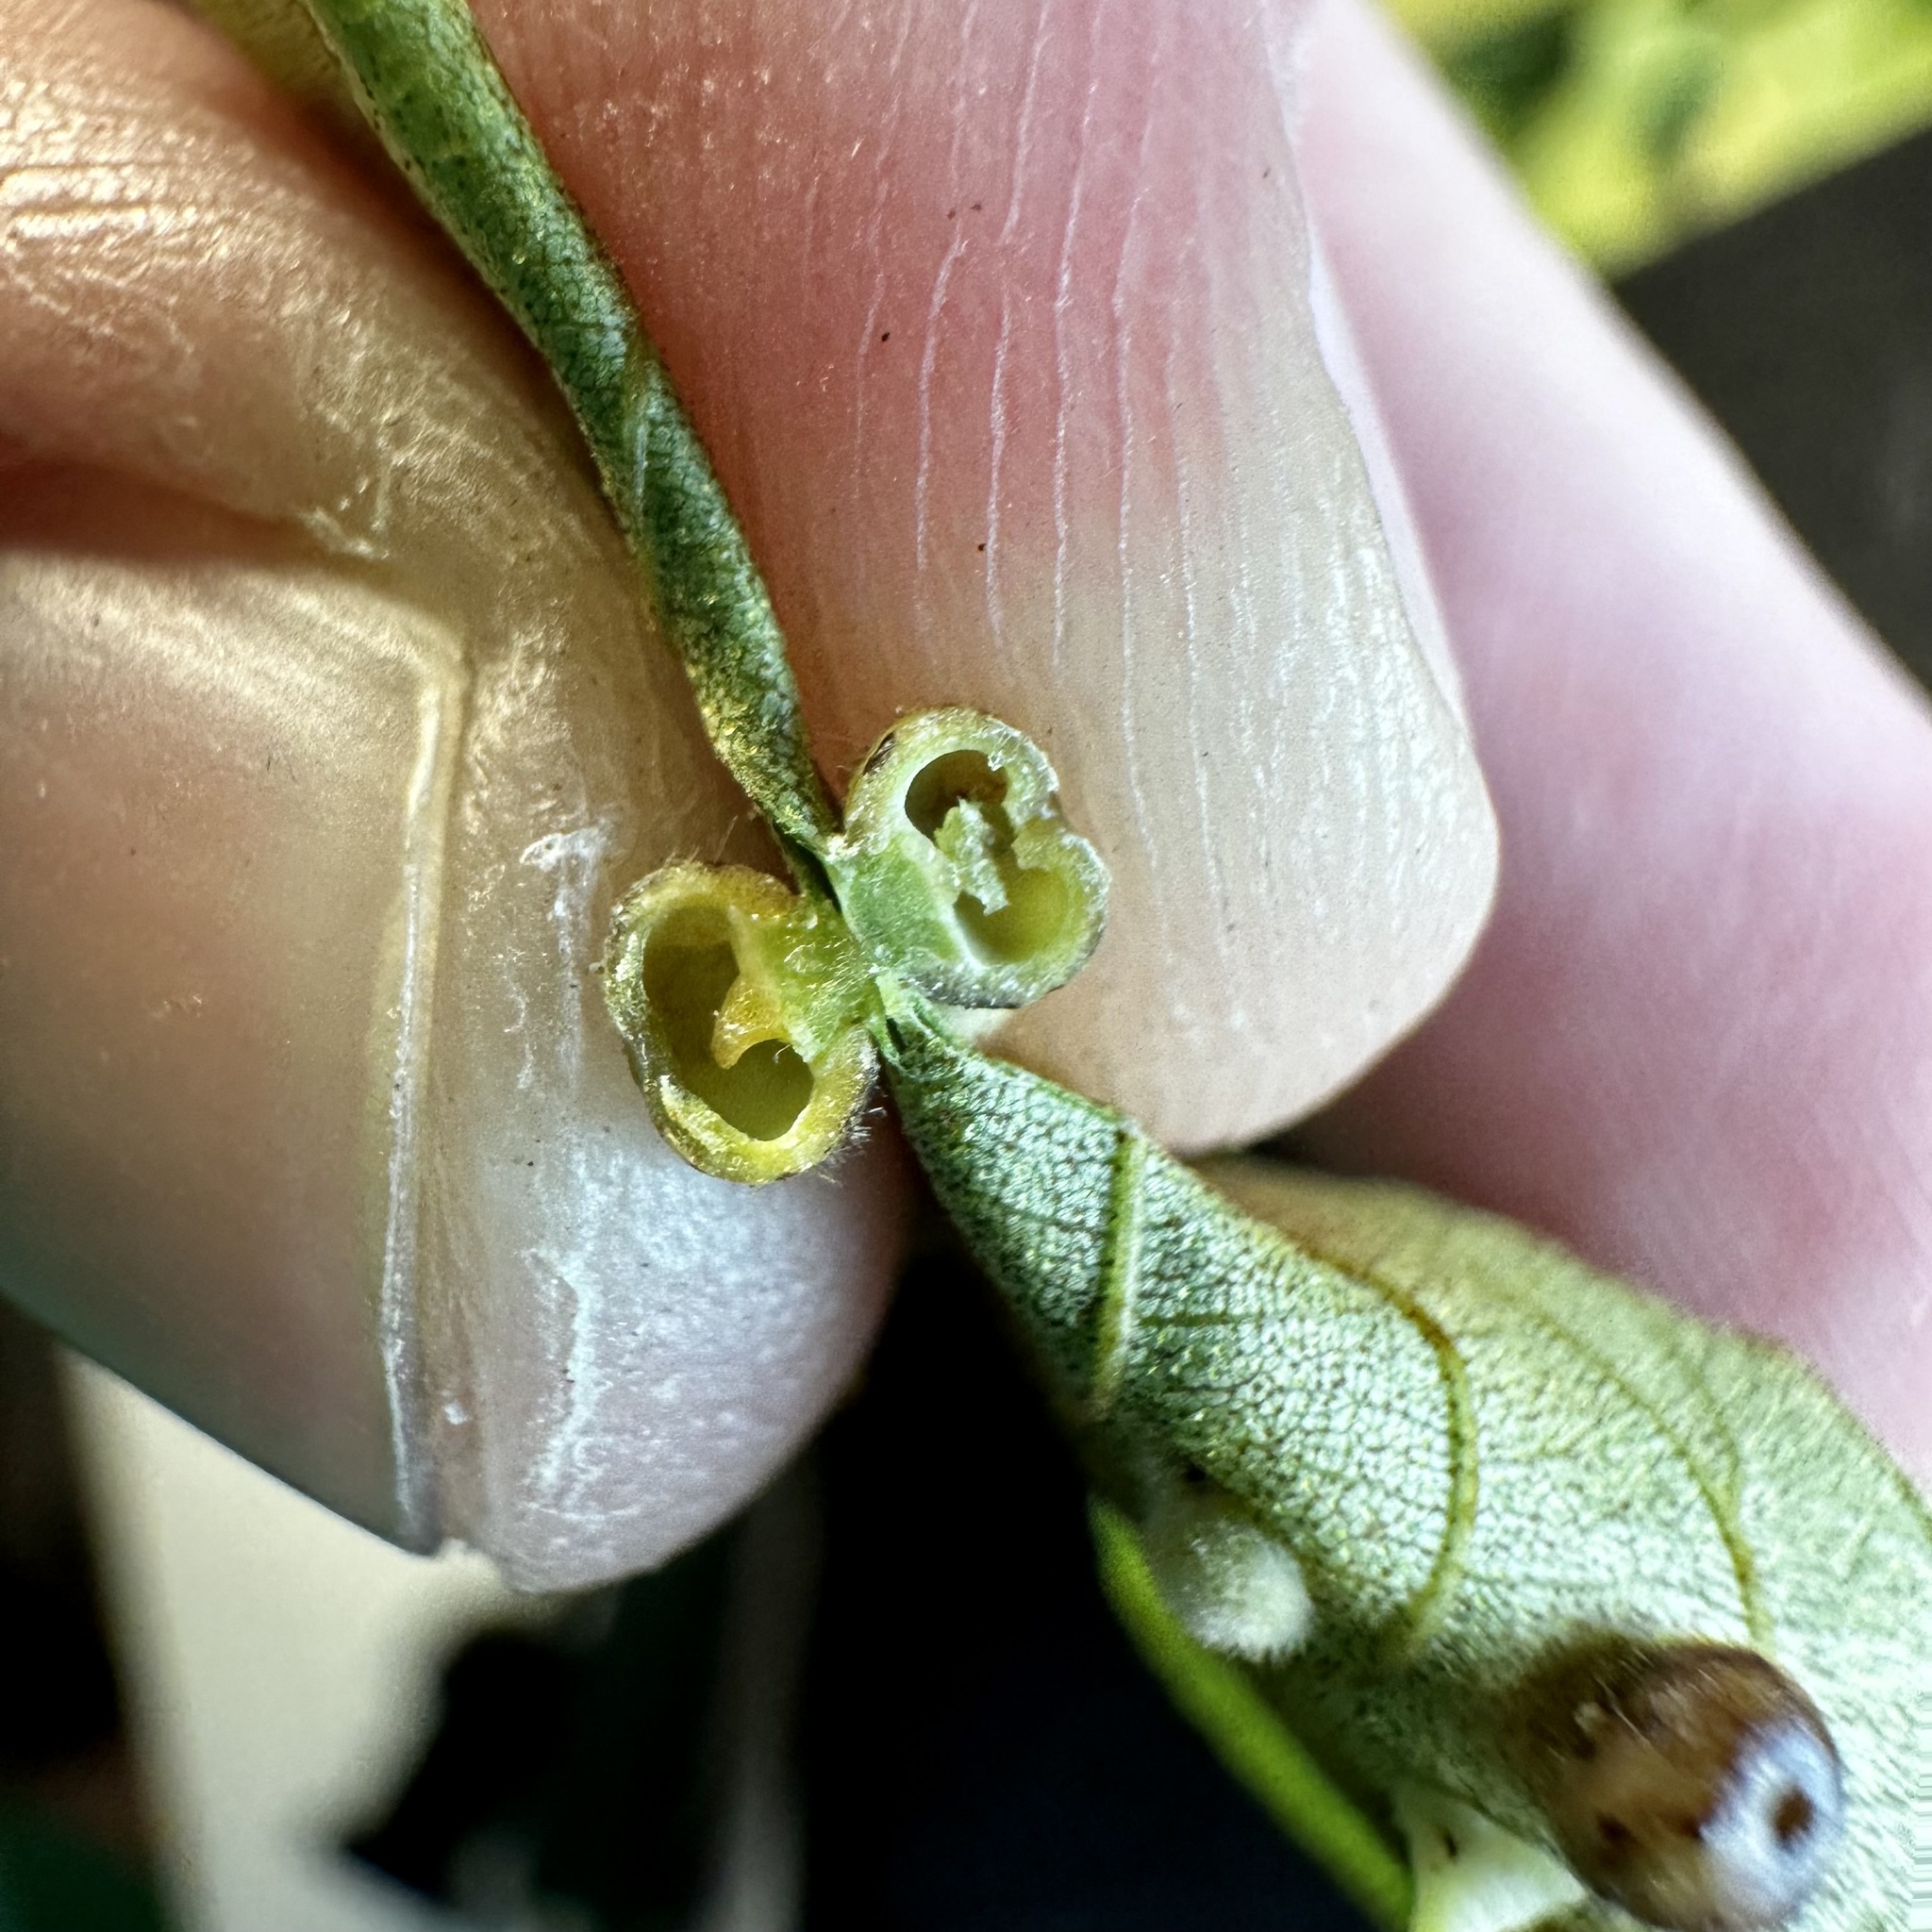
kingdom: Animalia
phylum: Arthropoda
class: Insecta
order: Diptera
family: Cecidomyiidae
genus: Caryomyia
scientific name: Caryomyia thompsoni
